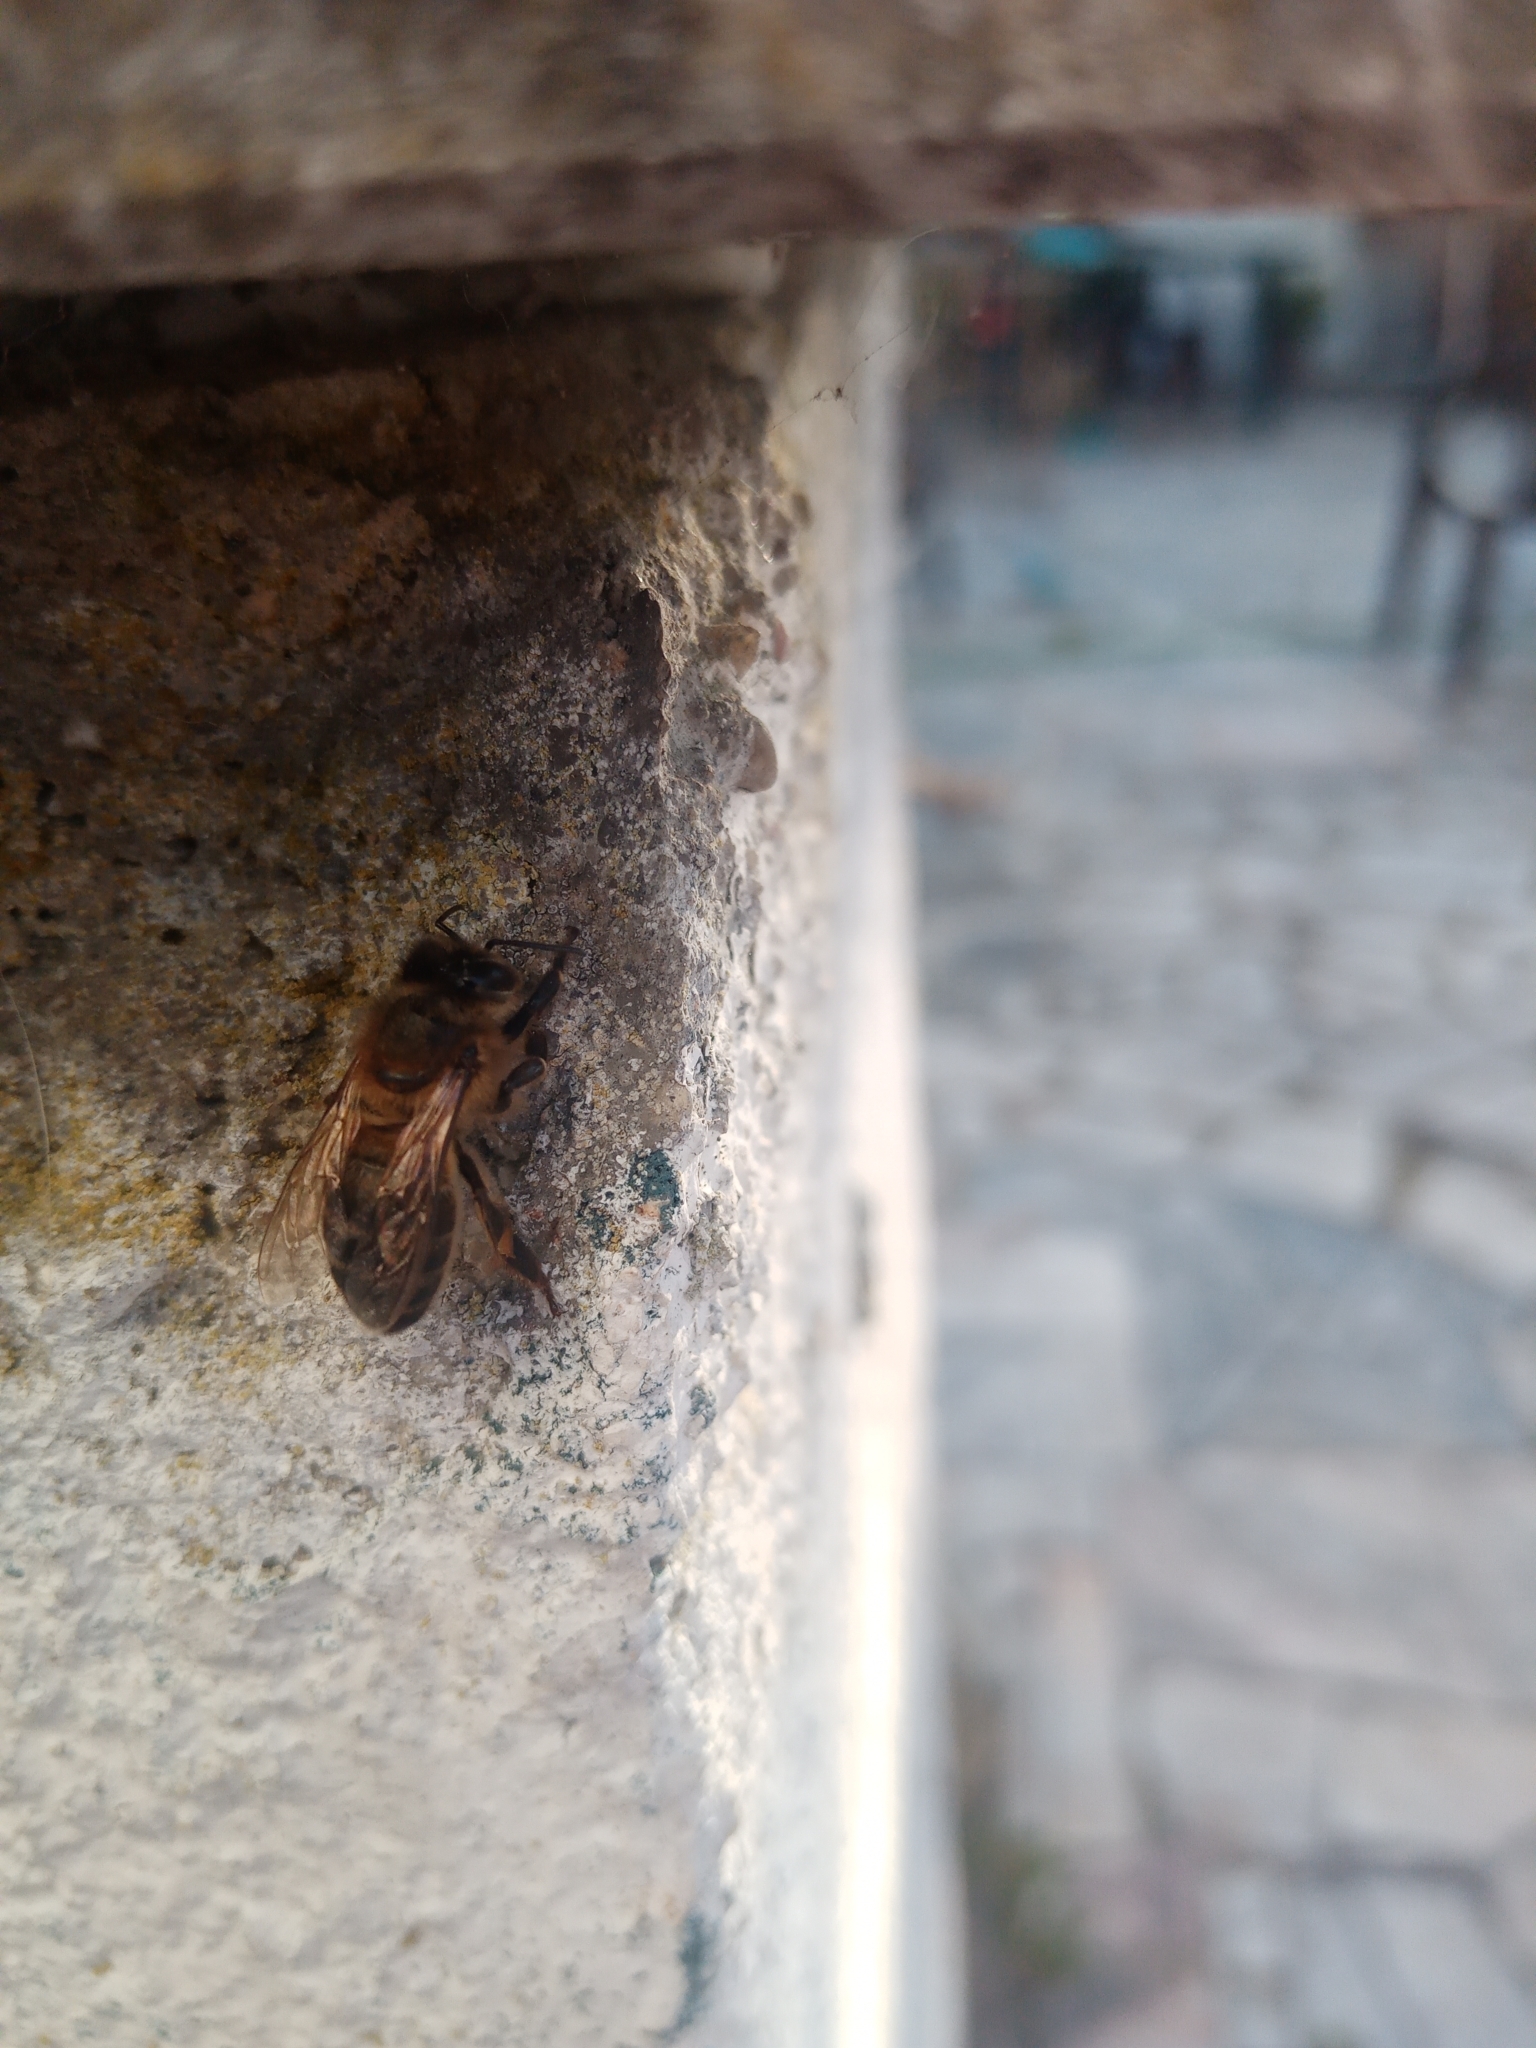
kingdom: Animalia
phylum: Arthropoda
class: Insecta
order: Hymenoptera
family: Apidae
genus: Apis
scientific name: Apis mellifera
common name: Honey bee
